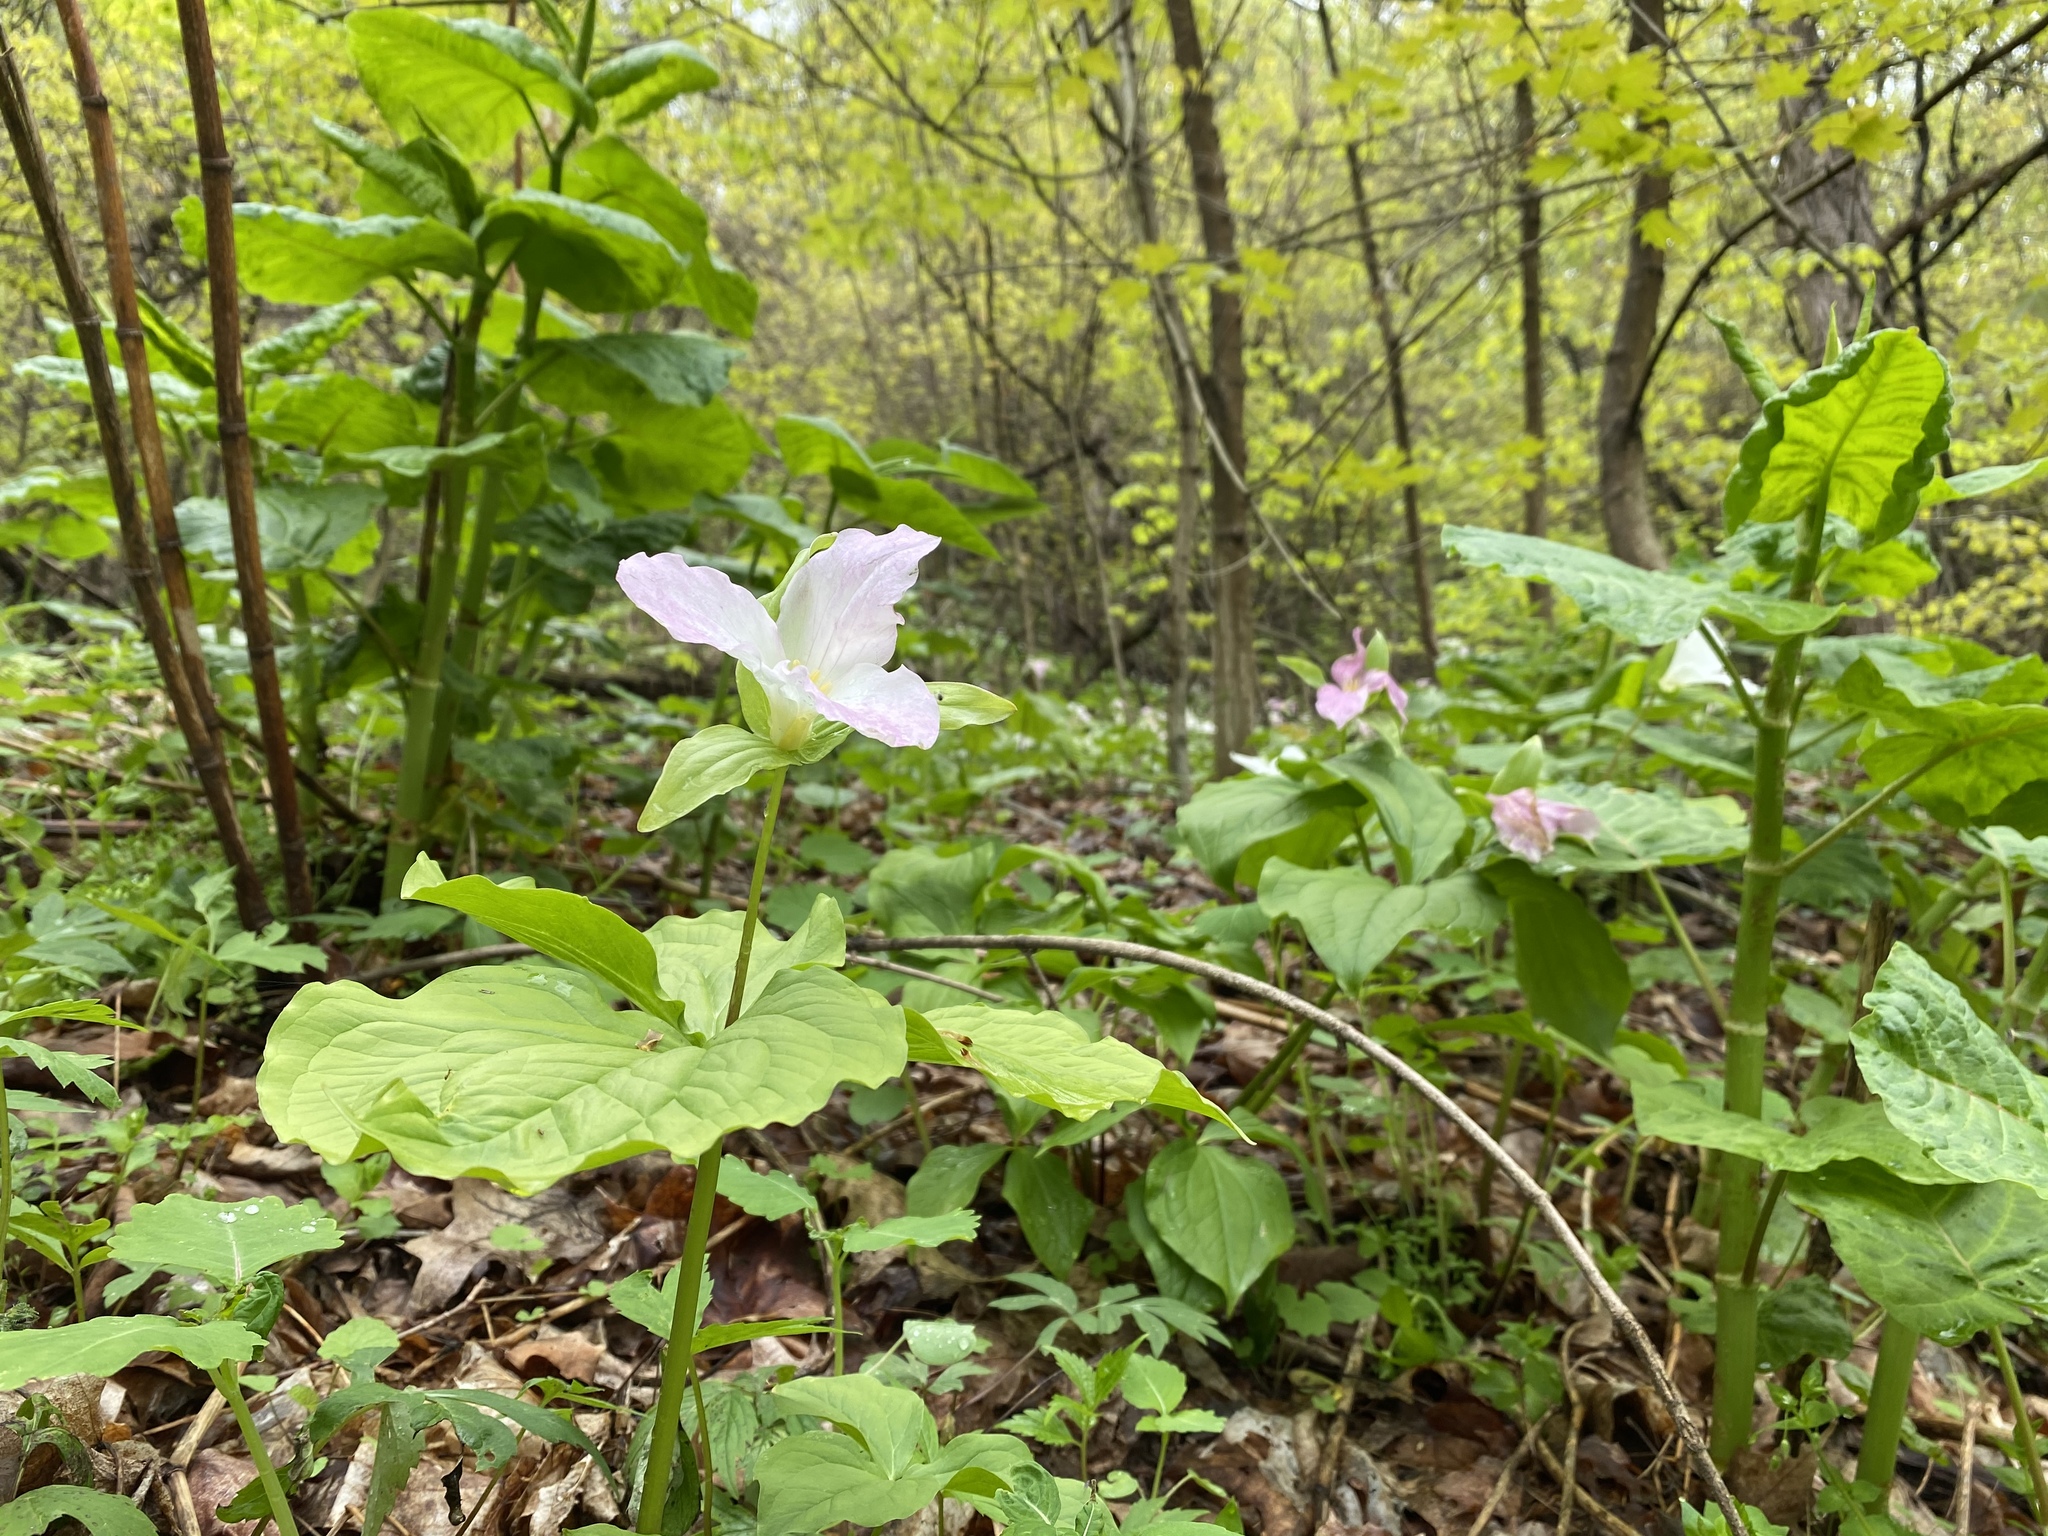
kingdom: Plantae
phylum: Tracheophyta
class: Liliopsida
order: Liliales
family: Melanthiaceae
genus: Trillium
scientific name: Trillium grandiflorum
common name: Great white trillium
